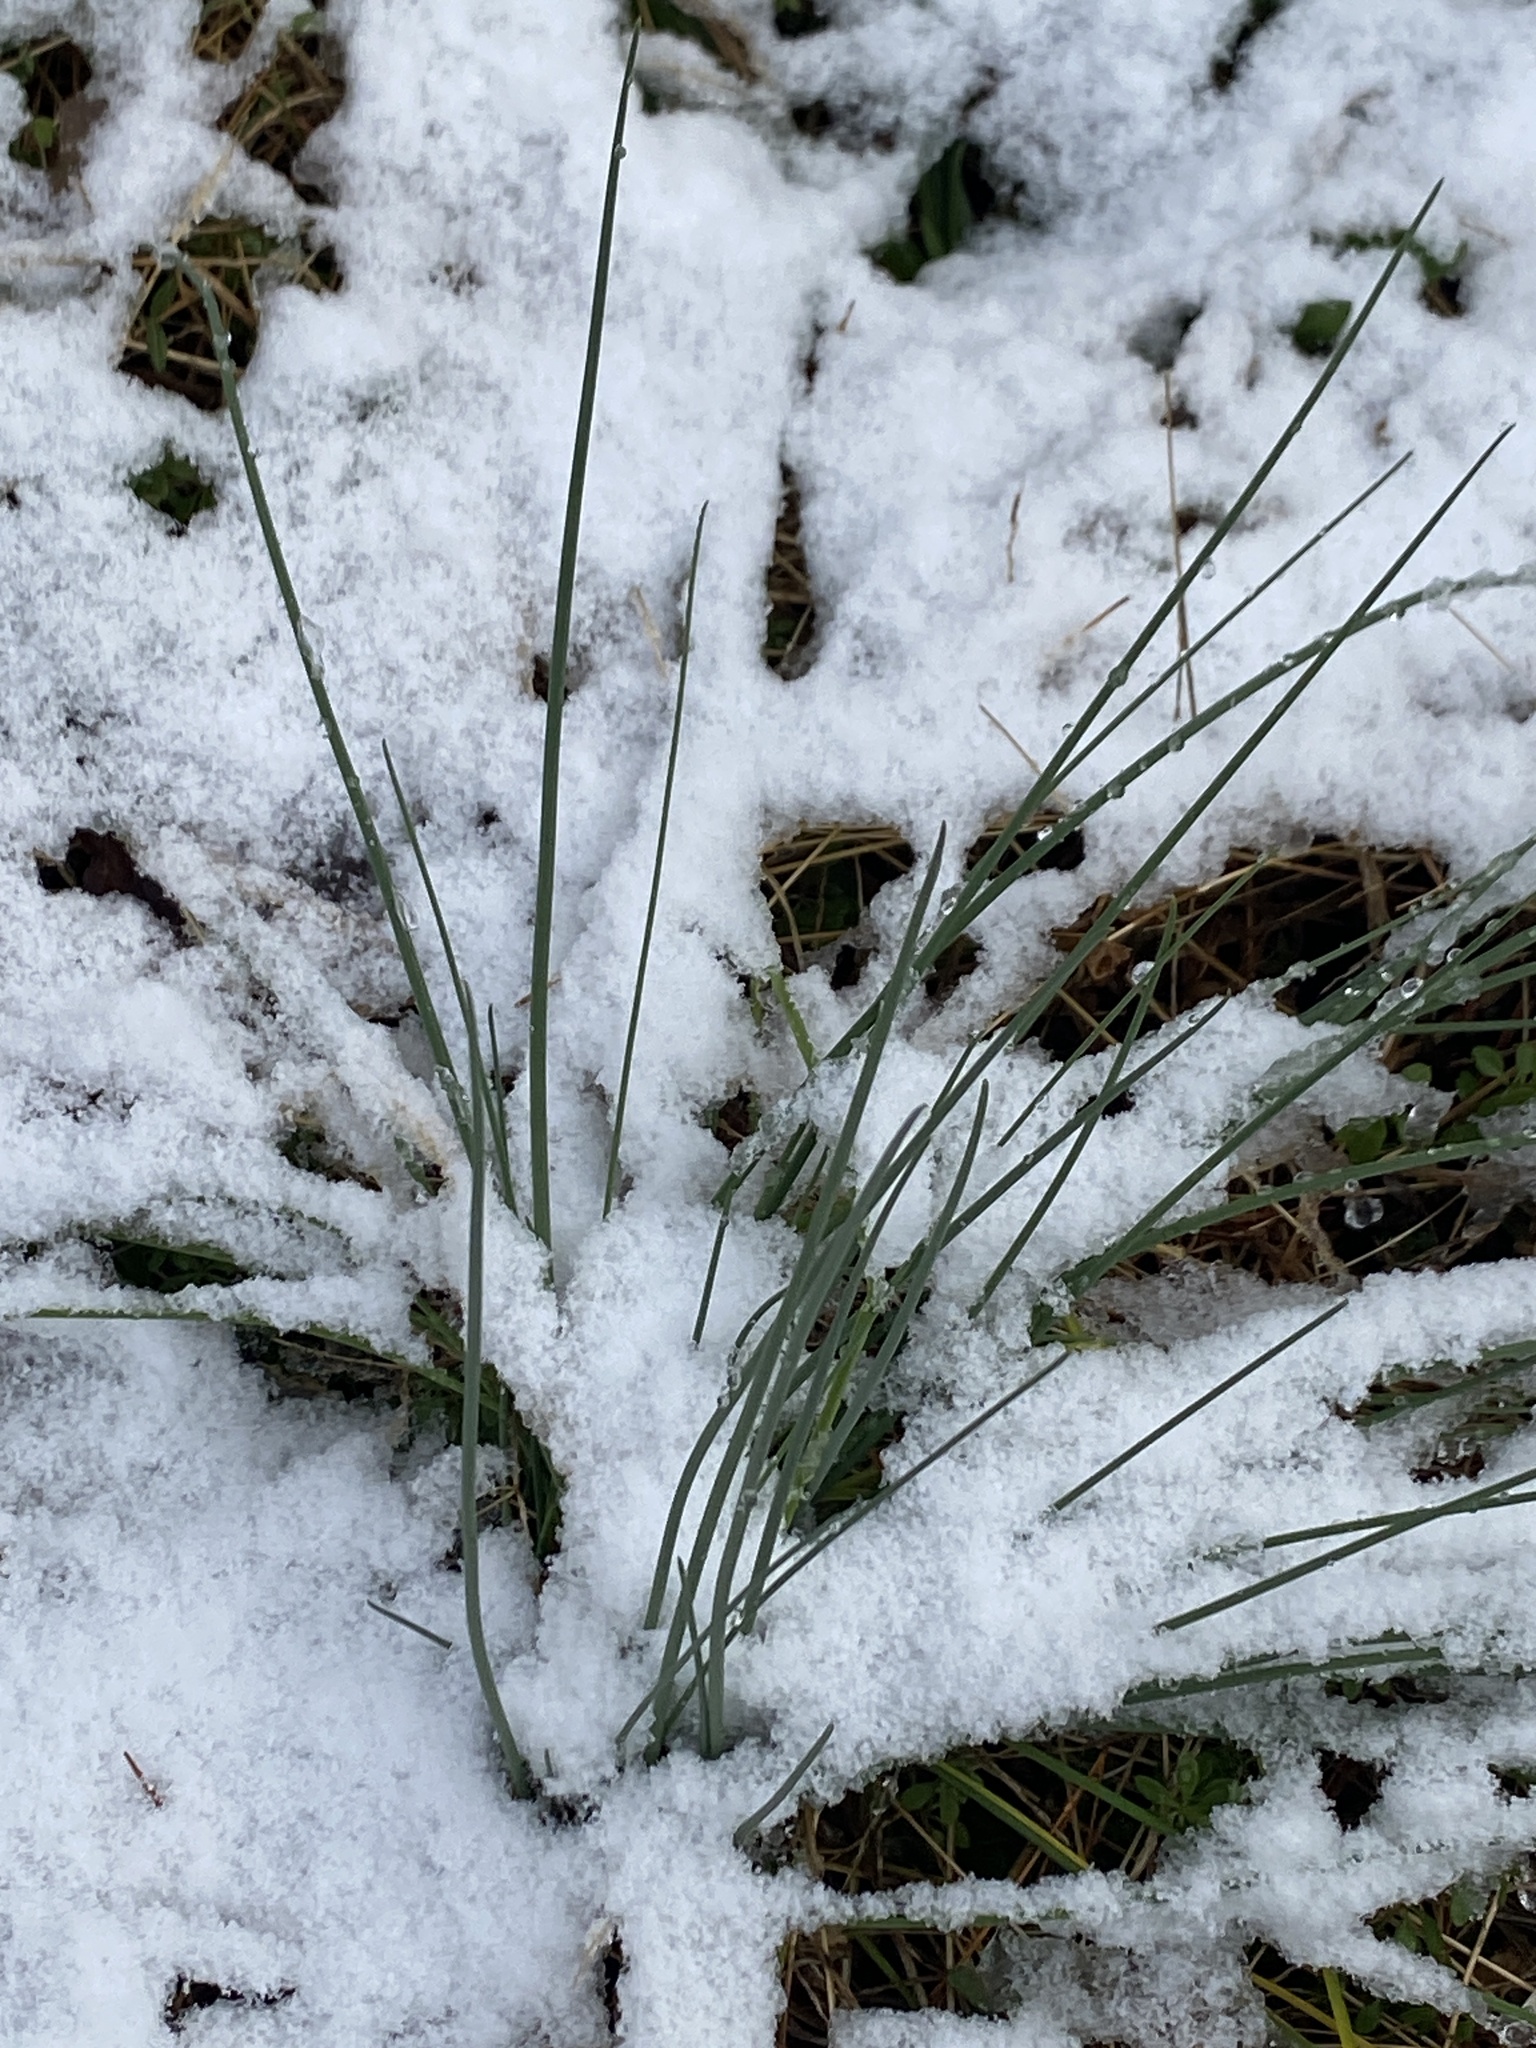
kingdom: Plantae
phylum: Tracheophyta
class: Liliopsida
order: Asparagales
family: Amaryllidaceae
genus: Allium
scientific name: Allium vineale
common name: Crow garlic
